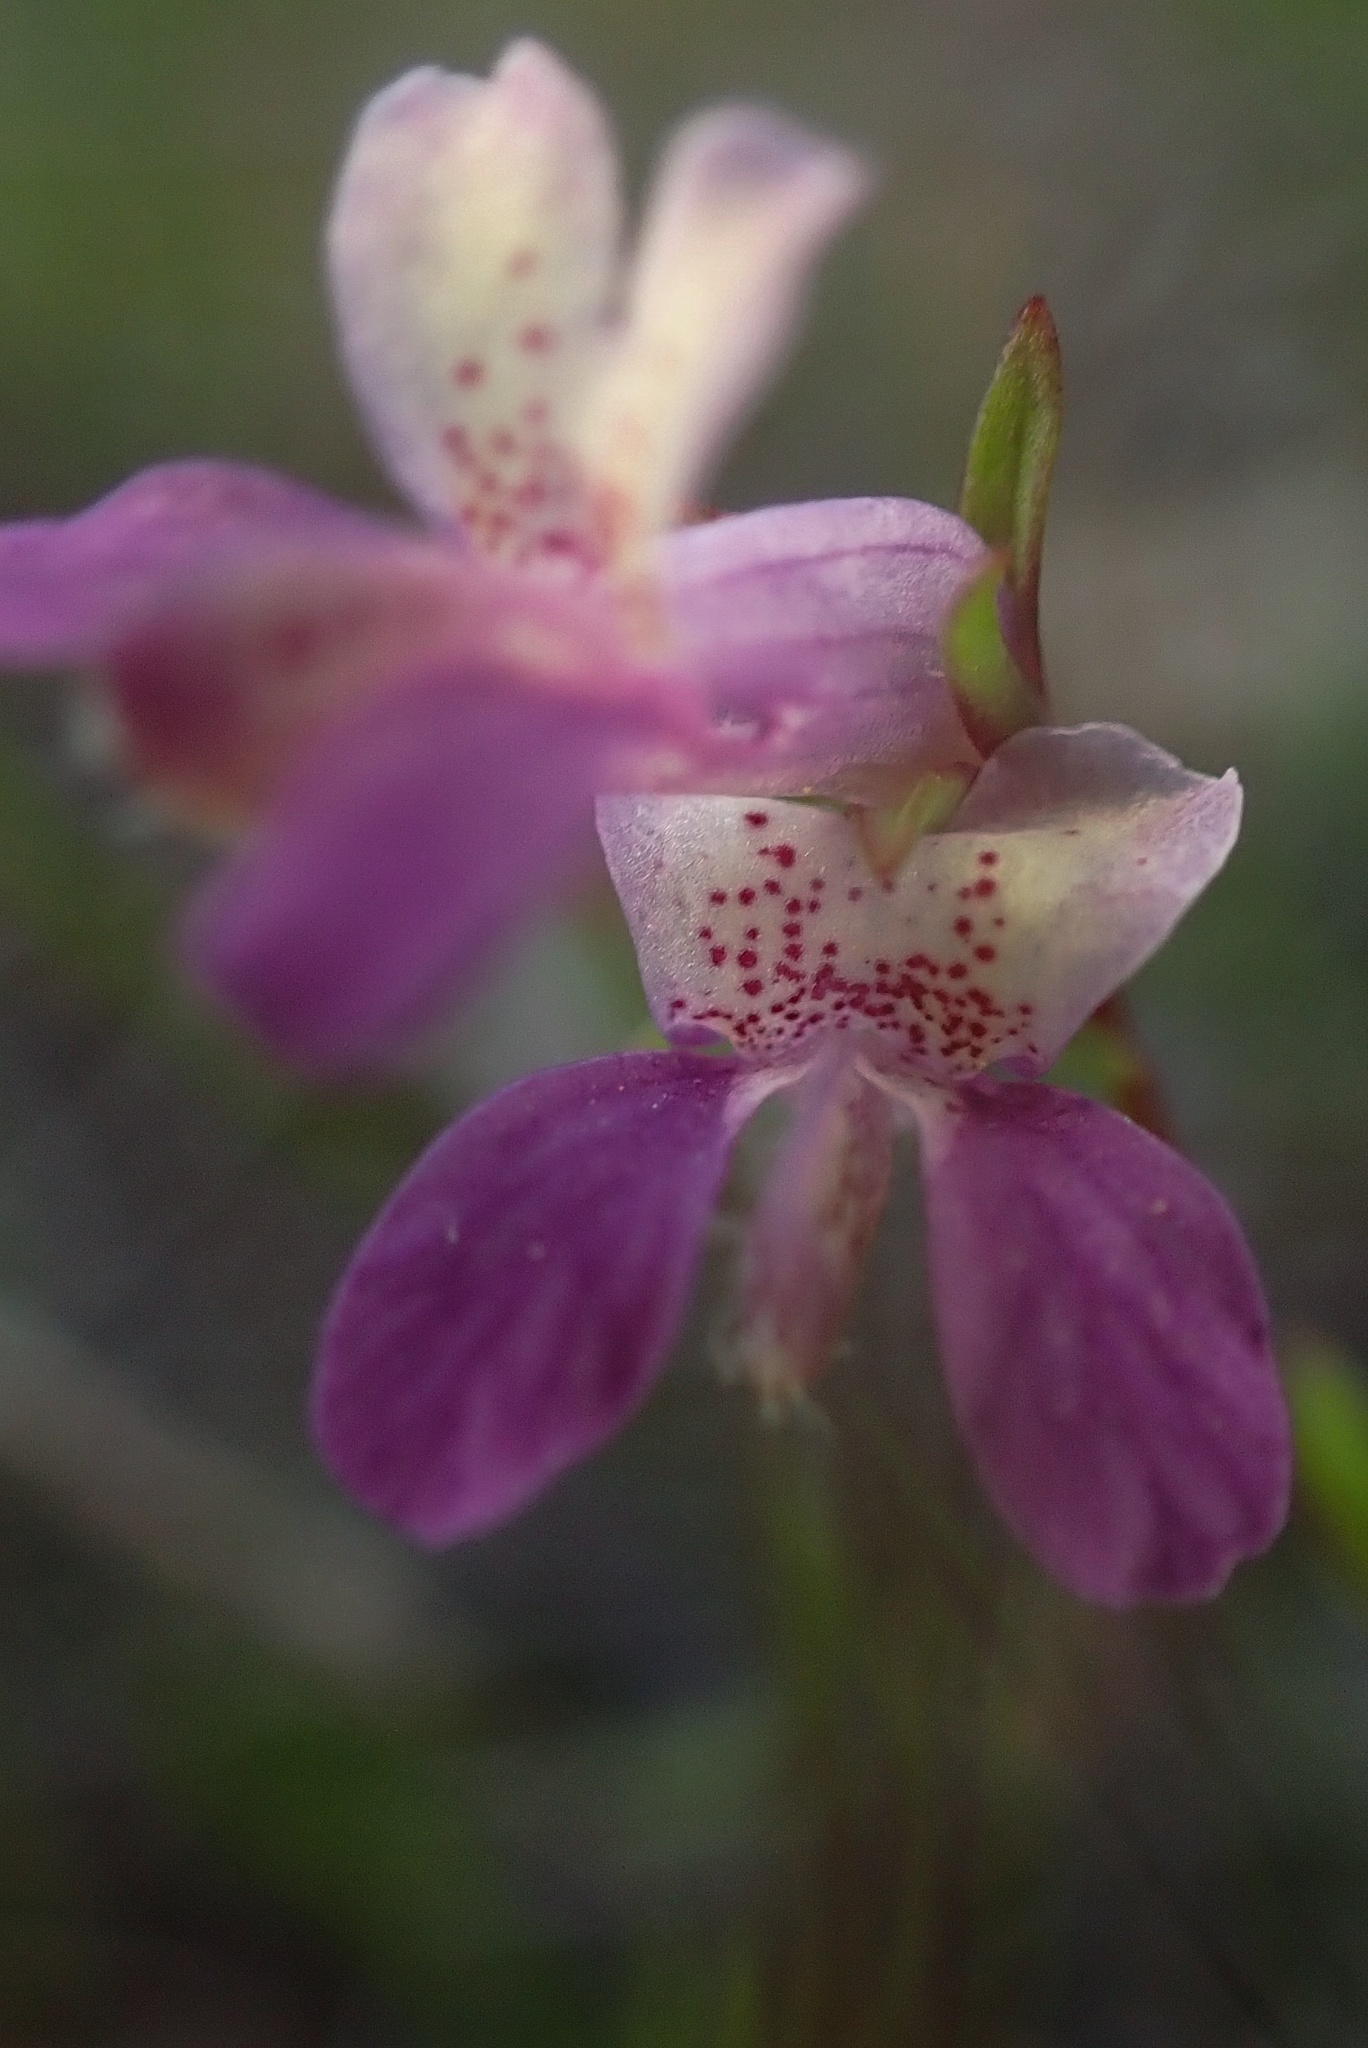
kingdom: Plantae
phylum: Tracheophyta
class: Magnoliopsida
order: Lamiales
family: Plantaginaceae
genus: Collinsia
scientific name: Collinsia sparsiflora
